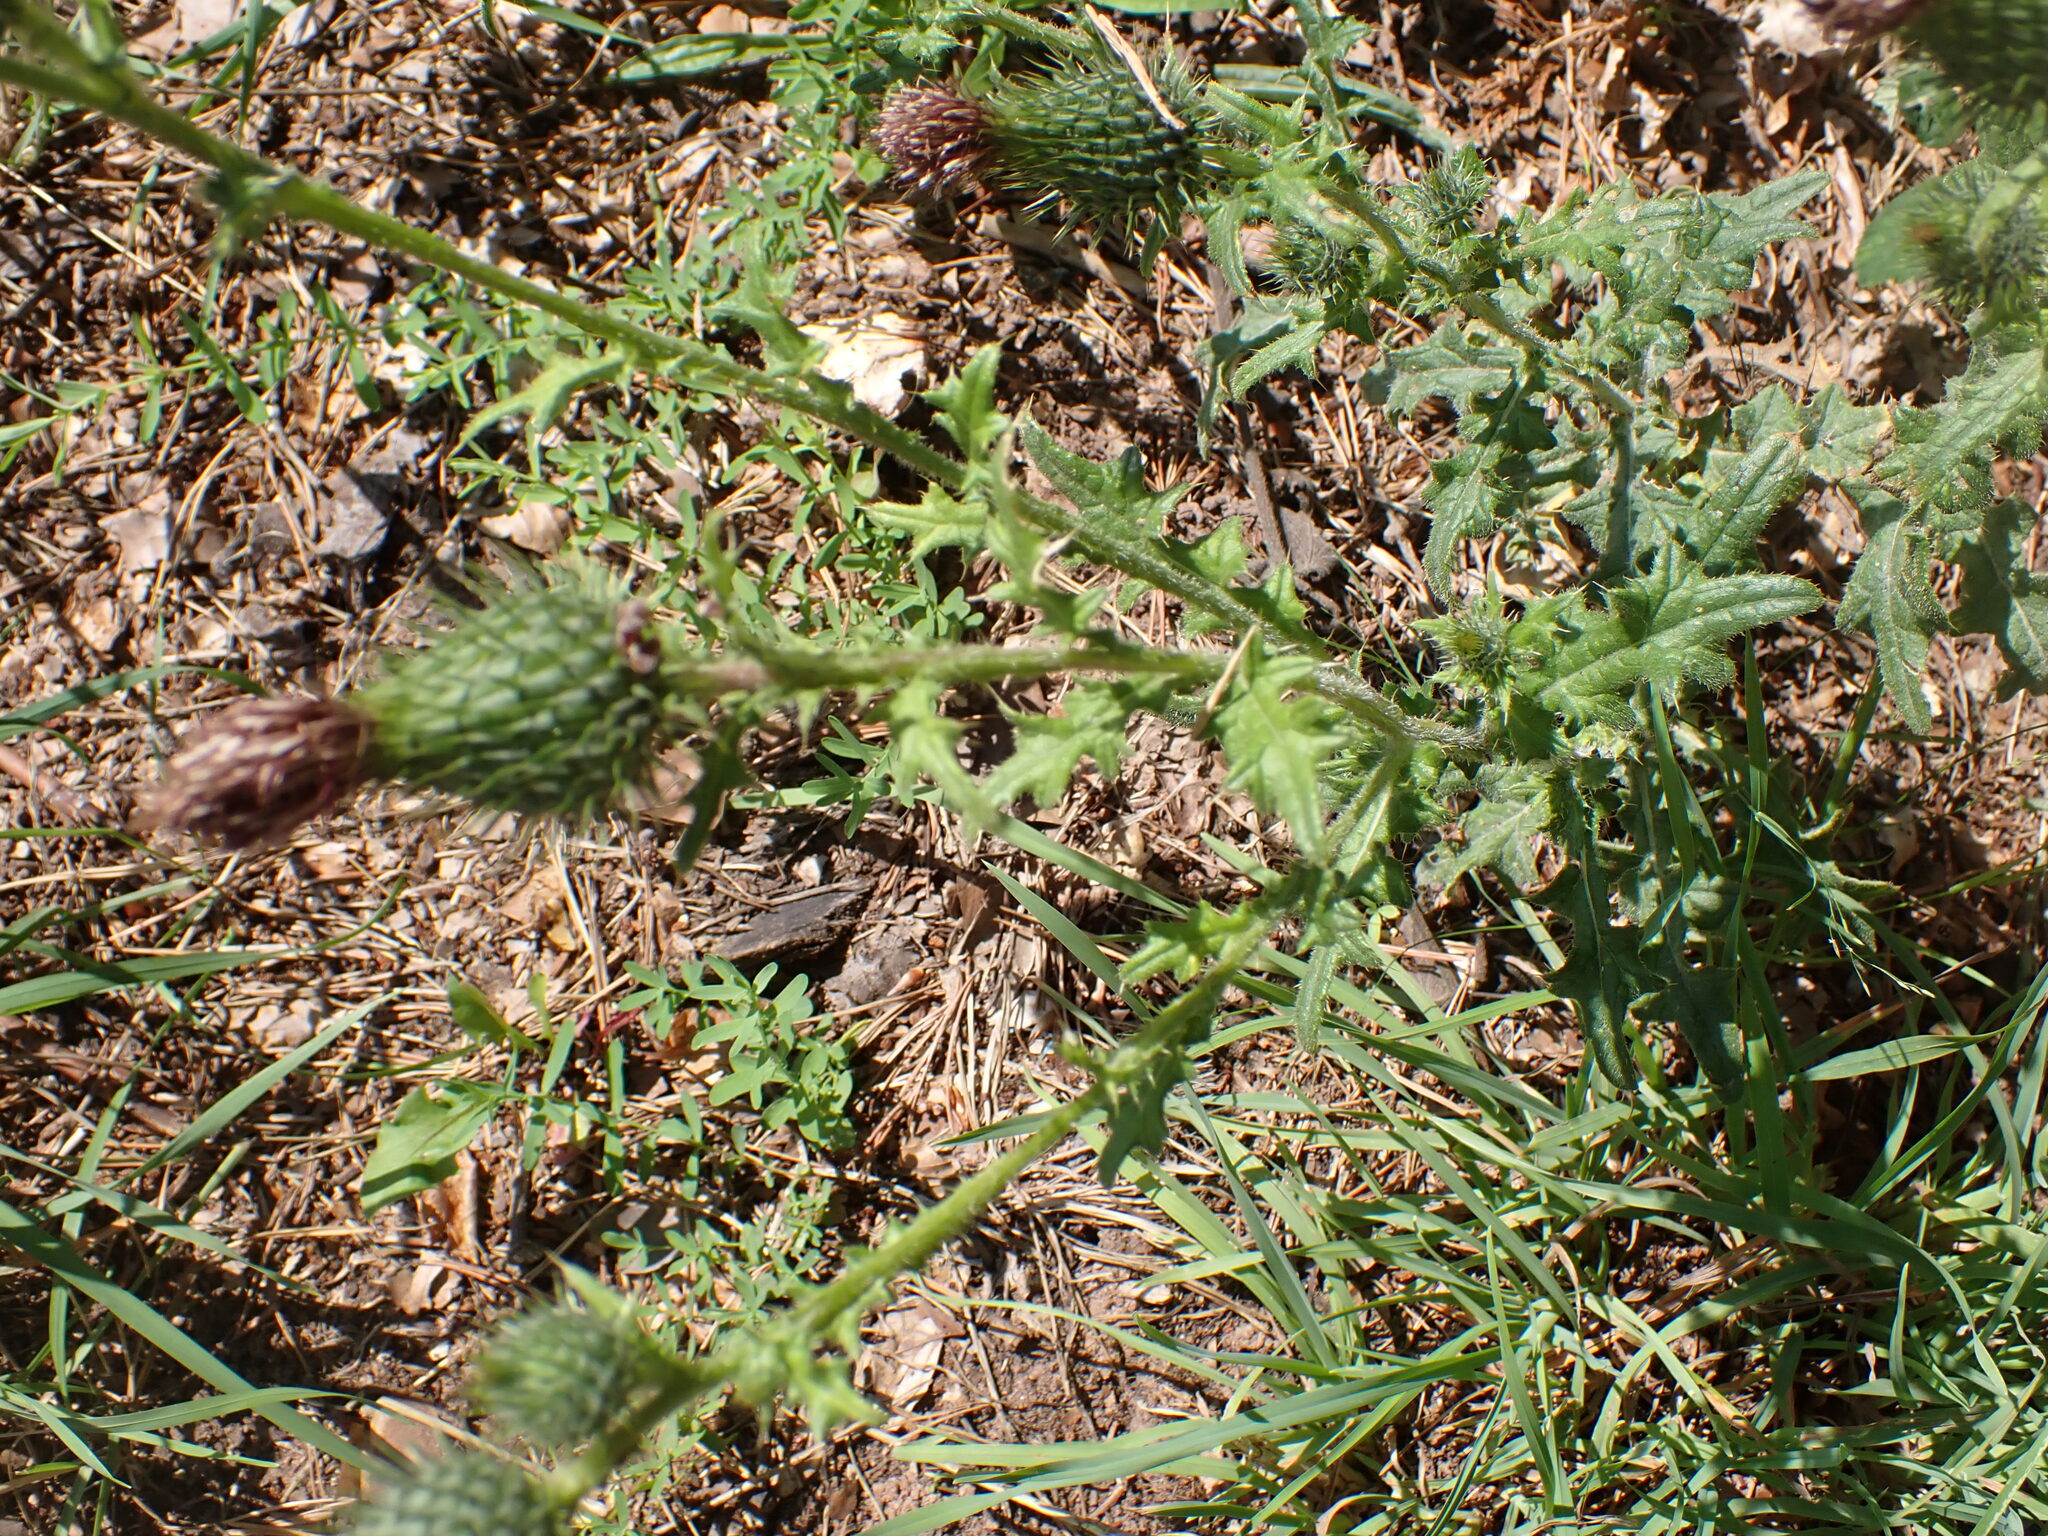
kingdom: Plantae
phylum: Tracheophyta
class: Magnoliopsida
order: Asterales
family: Asteraceae
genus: Cirsium
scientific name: Cirsium vulgare
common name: Bull thistle
